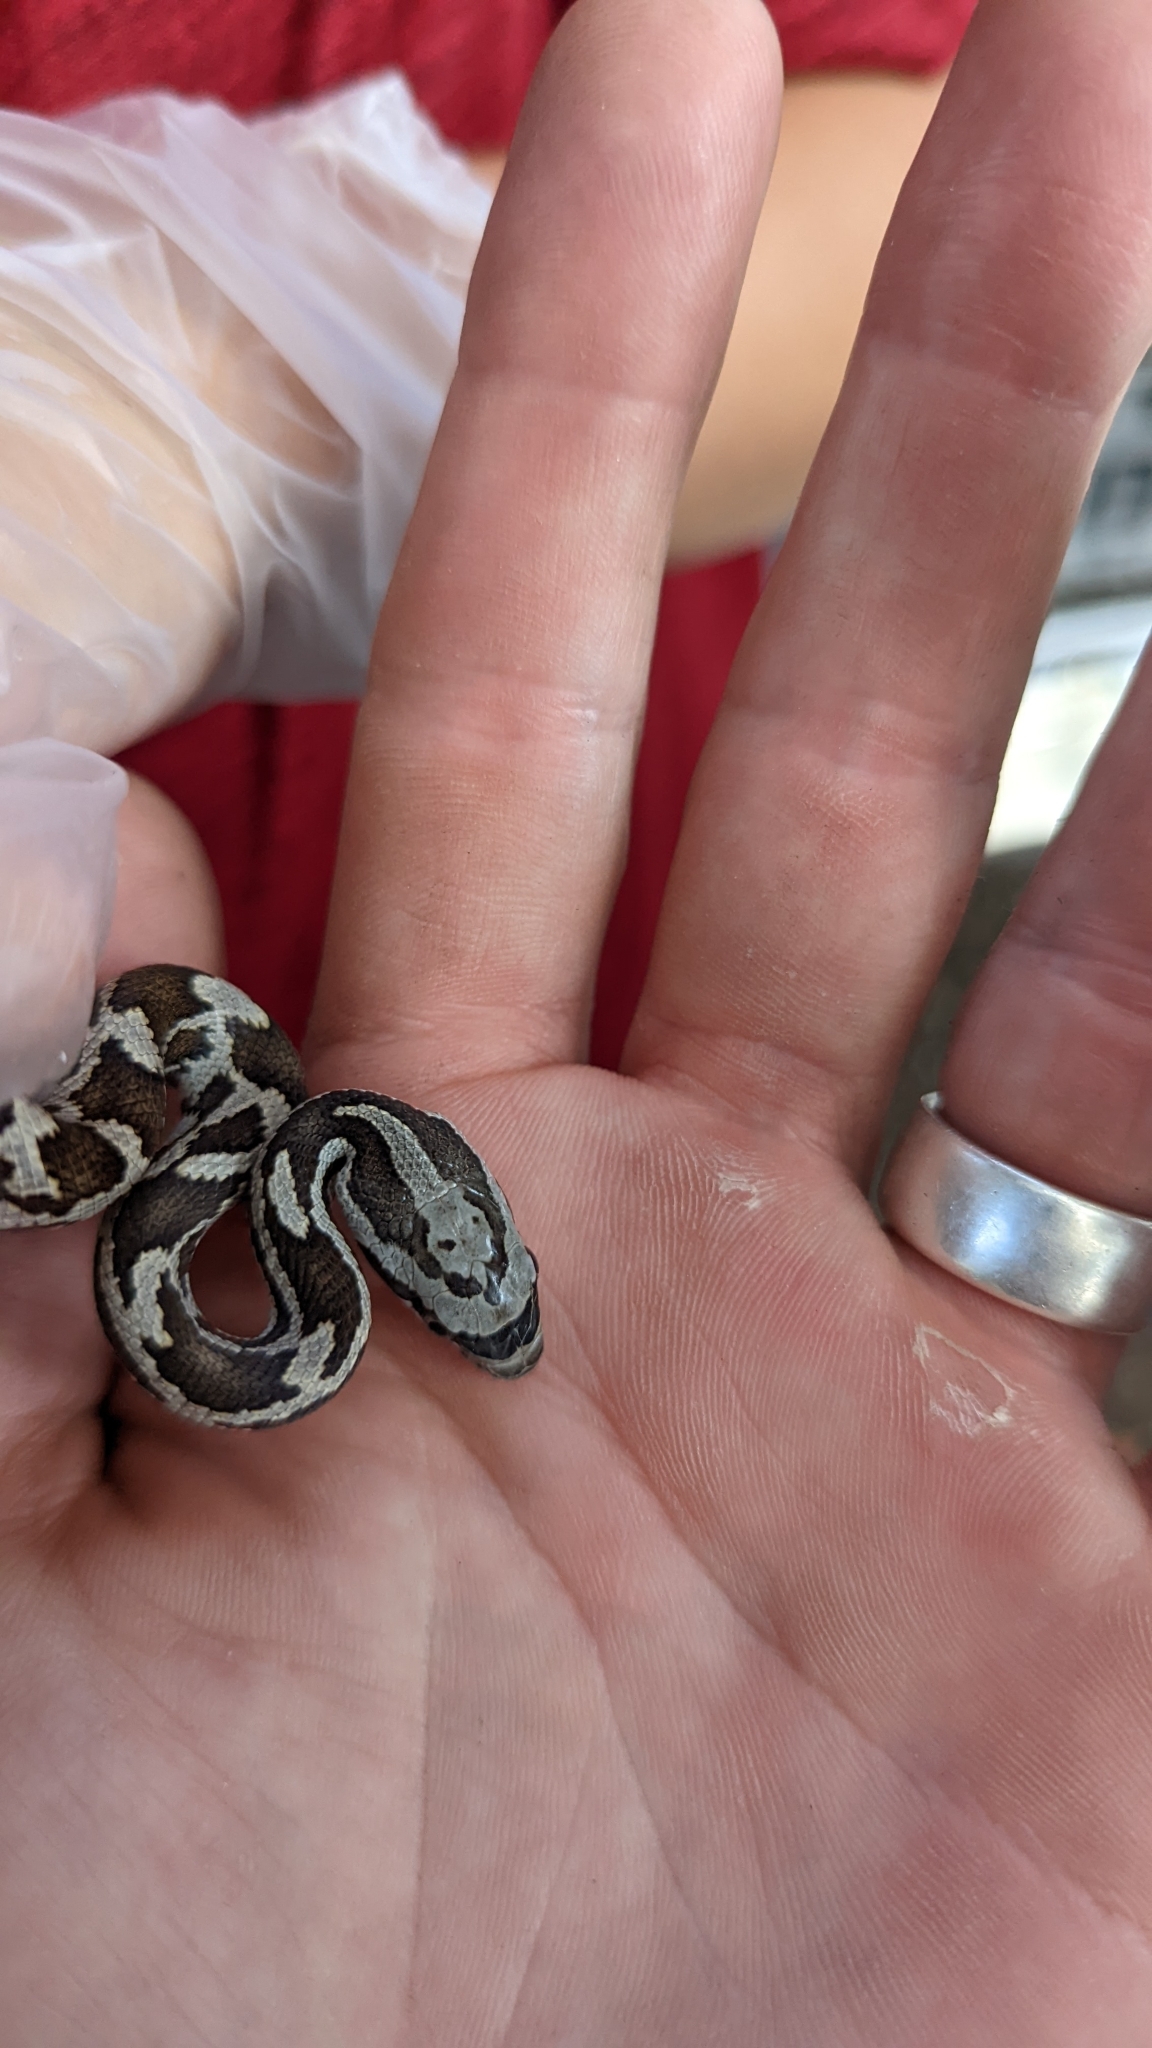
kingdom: Animalia
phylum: Chordata
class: Squamata
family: Colubridae
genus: Pantherophis
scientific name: Pantherophis obsoletus
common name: Black rat snake
